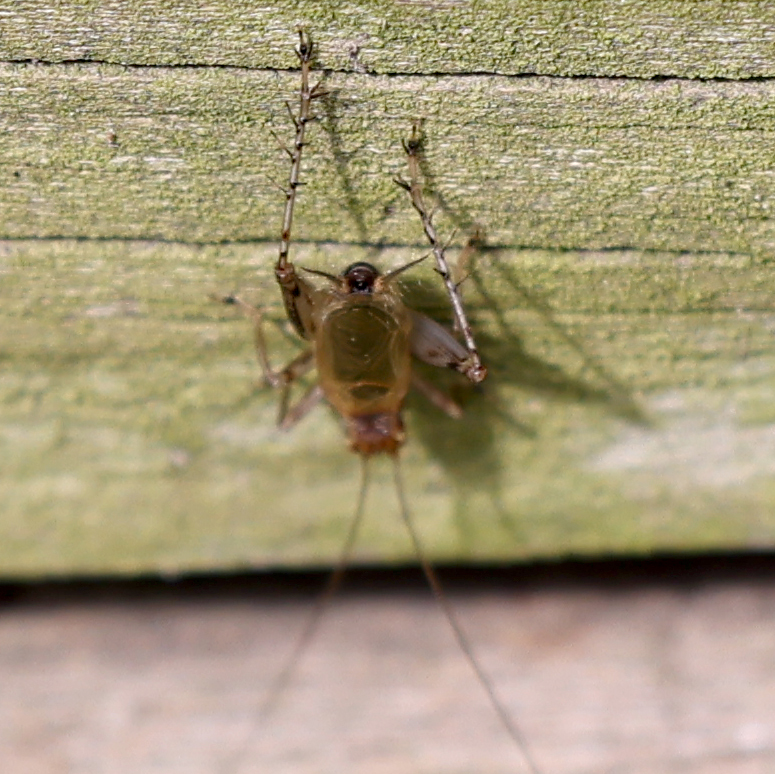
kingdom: Animalia
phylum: Arthropoda
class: Insecta
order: Orthoptera
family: Trigonidiidae
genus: Anaxipha
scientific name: Anaxipha exigua
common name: Say's bush cricket
